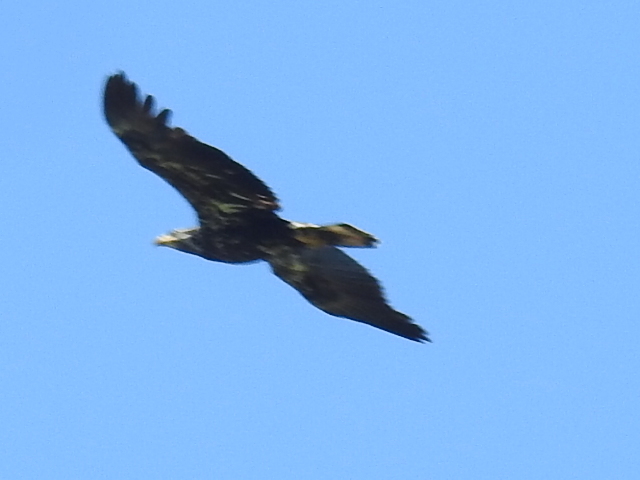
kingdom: Animalia
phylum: Chordata
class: Aves
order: Accipitriformes
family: Accipitridae
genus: Haliaeetus
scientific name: Haliaeetus leucocephalus
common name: Bald eagle
